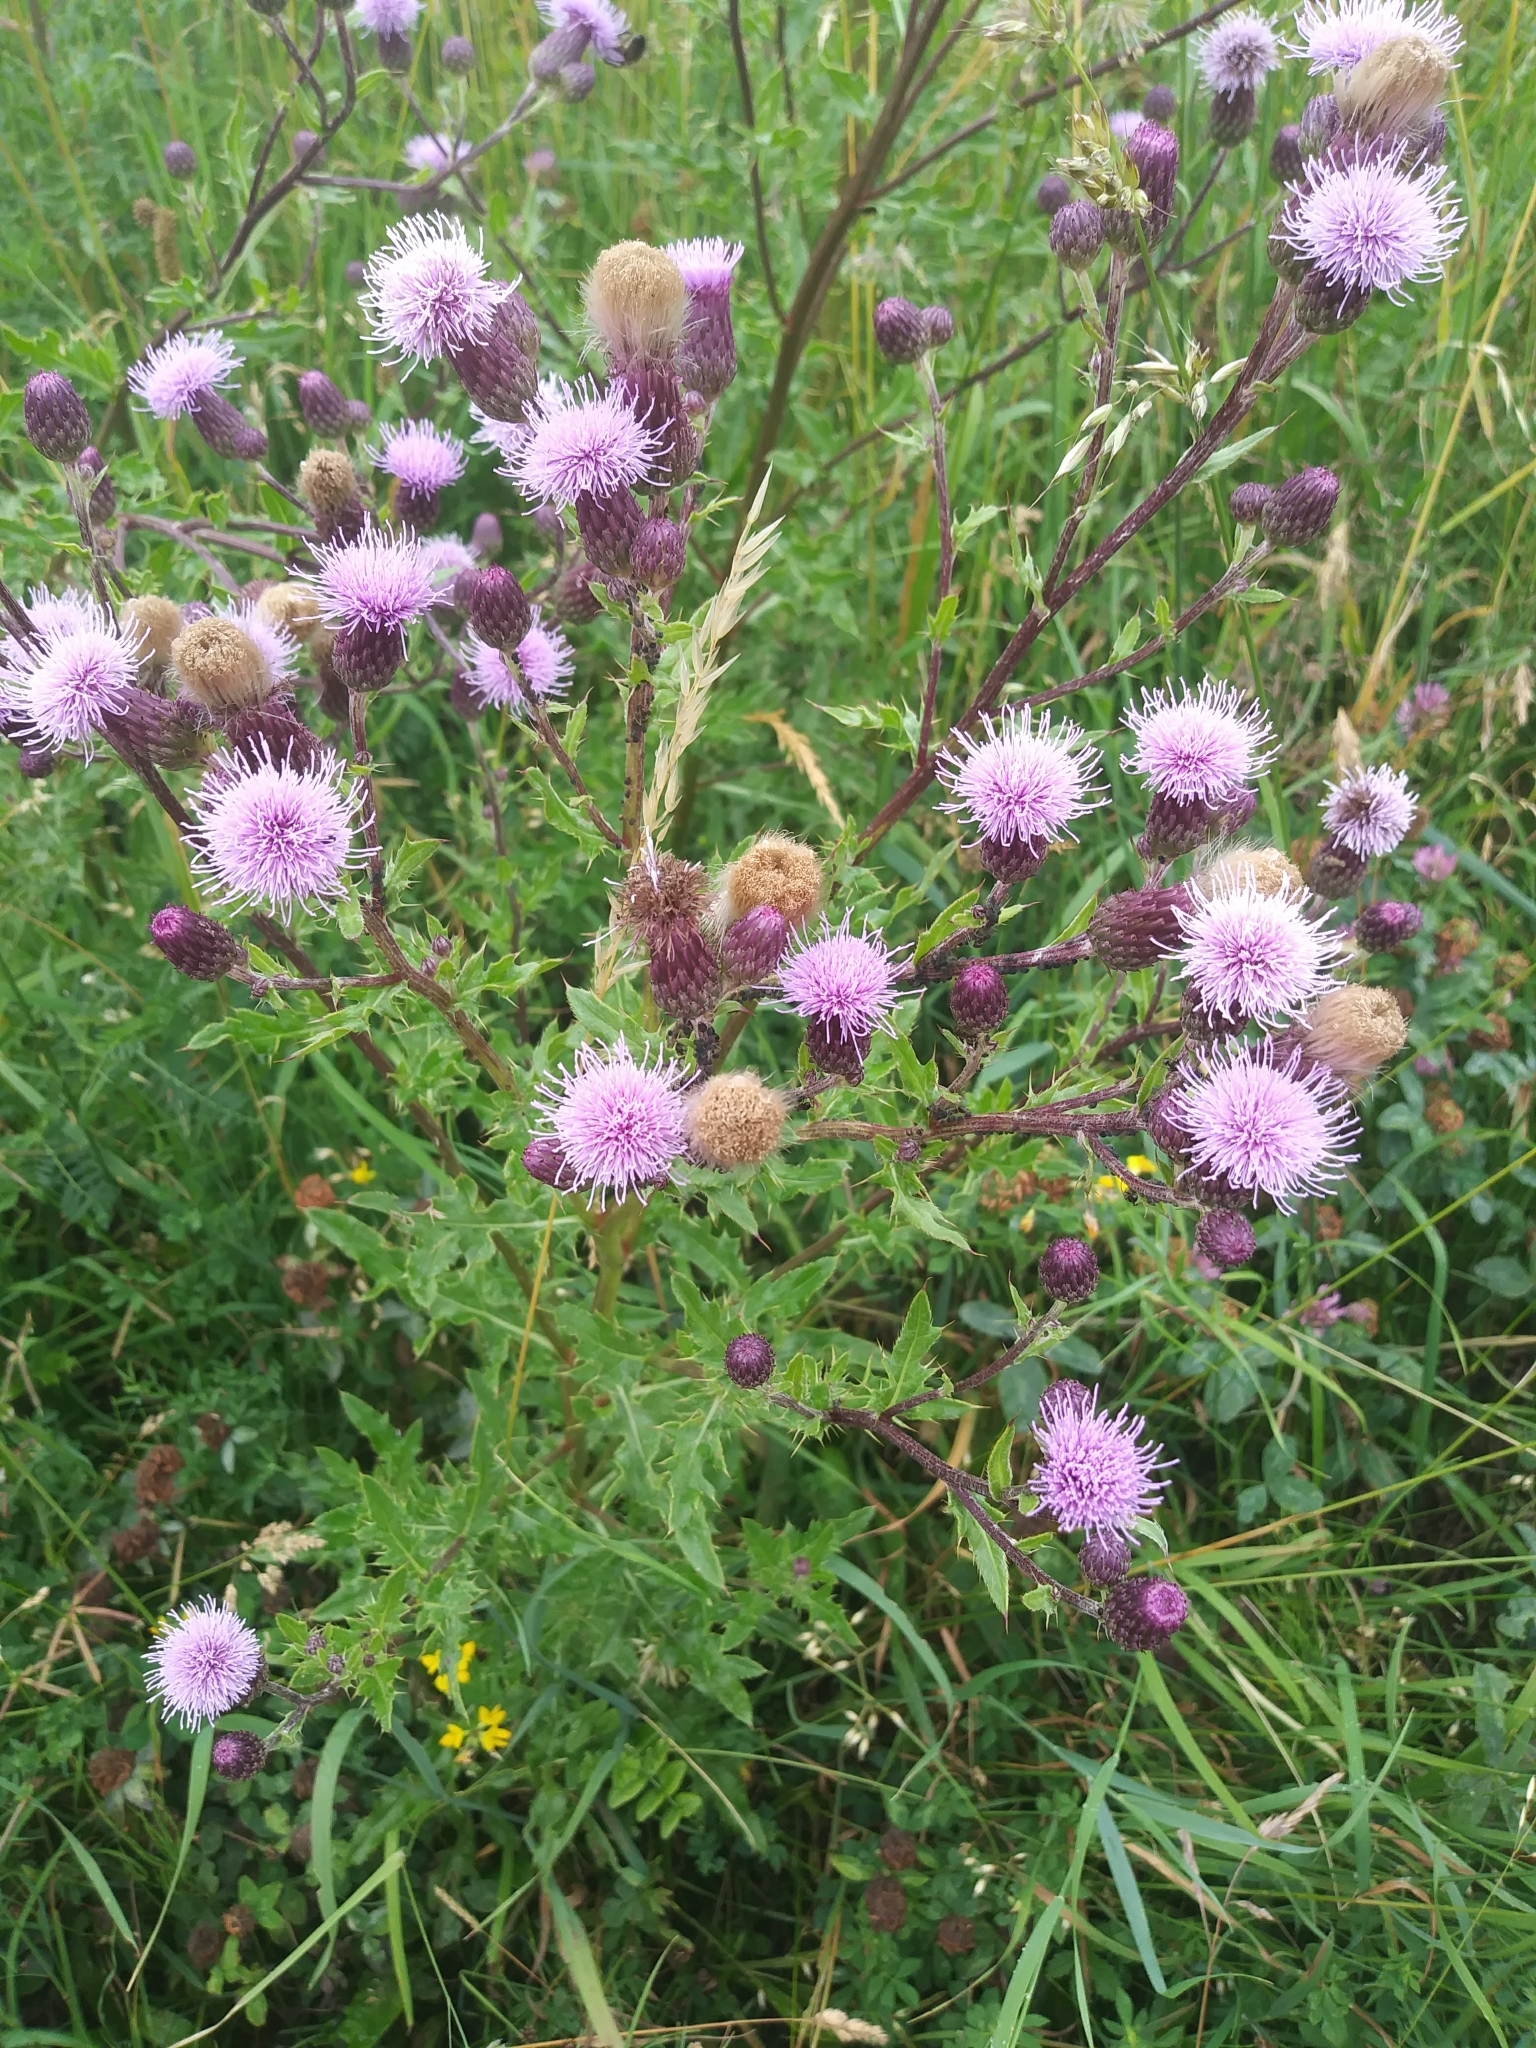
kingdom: Plantae
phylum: Tracheophyta
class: Magnoliopsida
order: Asterales
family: Asteraceae
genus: Cirsium
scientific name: Cirsium arvense
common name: Creeping thistle
